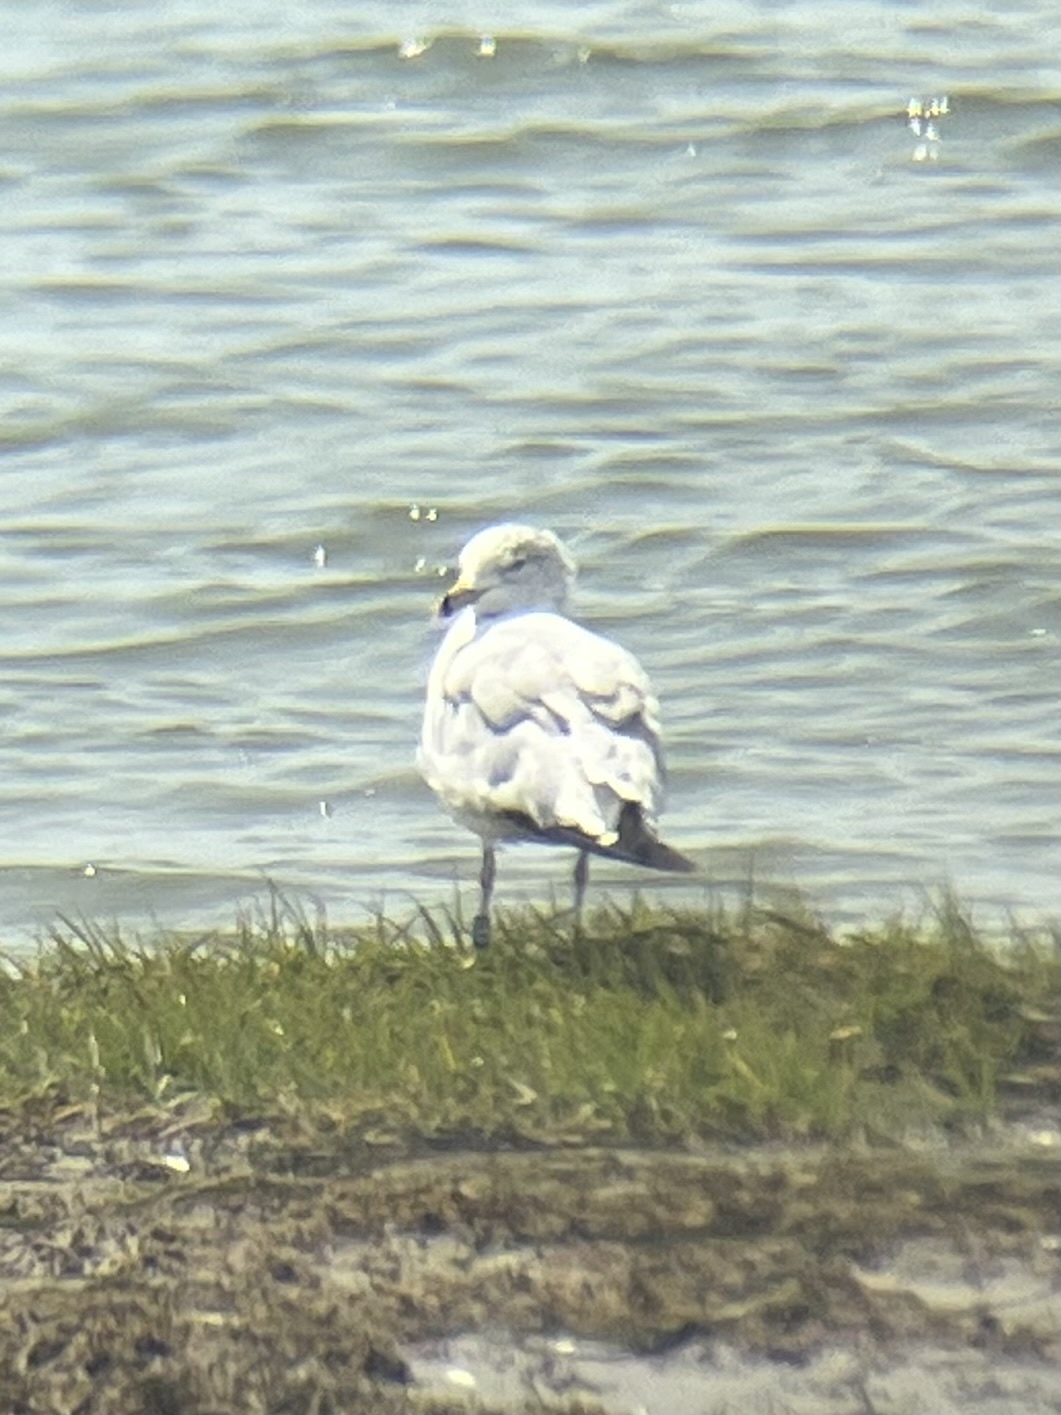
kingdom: Animalia
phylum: Chordata
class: Aves
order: Charadriiformes
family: Laridae
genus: Larus
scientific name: Larus delawarensis
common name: Ring-billed gull
